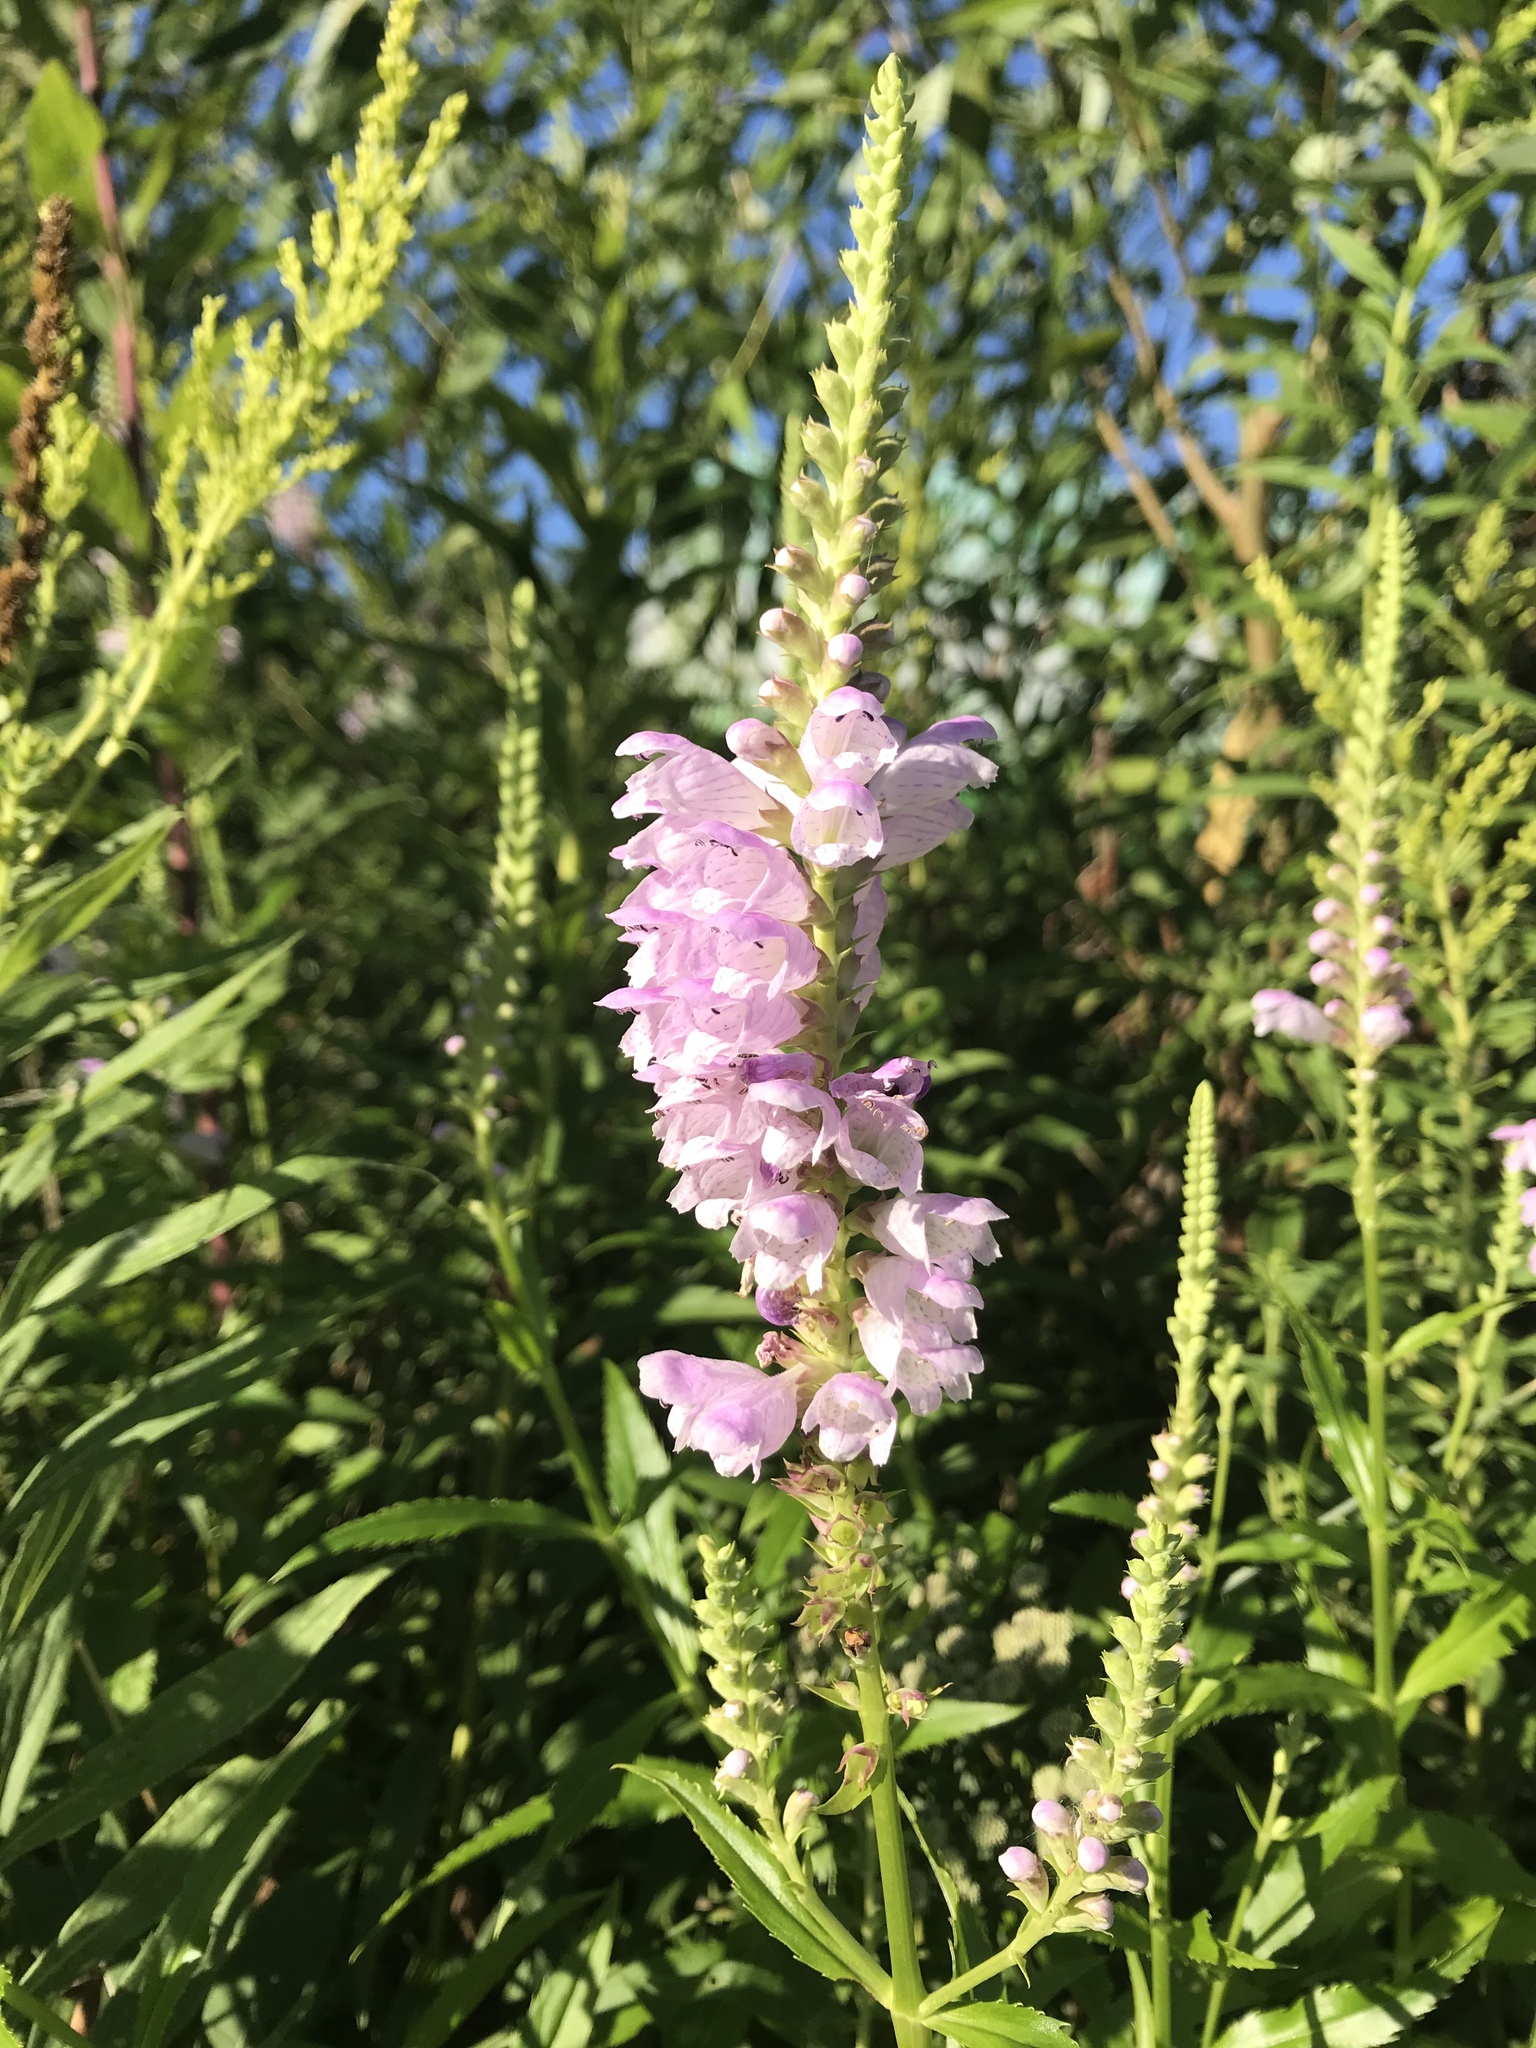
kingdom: Plantae
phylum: Tracheophyta
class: Magnoliopsida
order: Lamiales
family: Lamiaceae
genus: Physostegia
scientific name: Physostegia virginiana
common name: Obedient-plant
